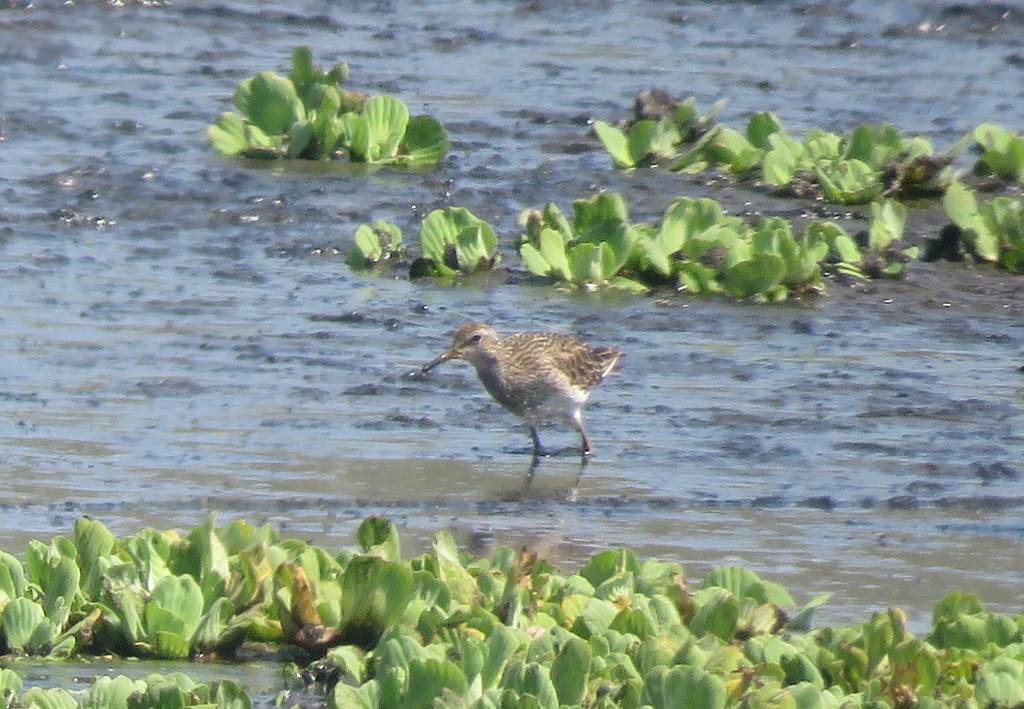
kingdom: Animalia
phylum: Chordata
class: Aves
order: Charadriiformes
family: Scolopacidae
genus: Calidris
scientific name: Calidris melanotos
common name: Pectoral sandpiper
